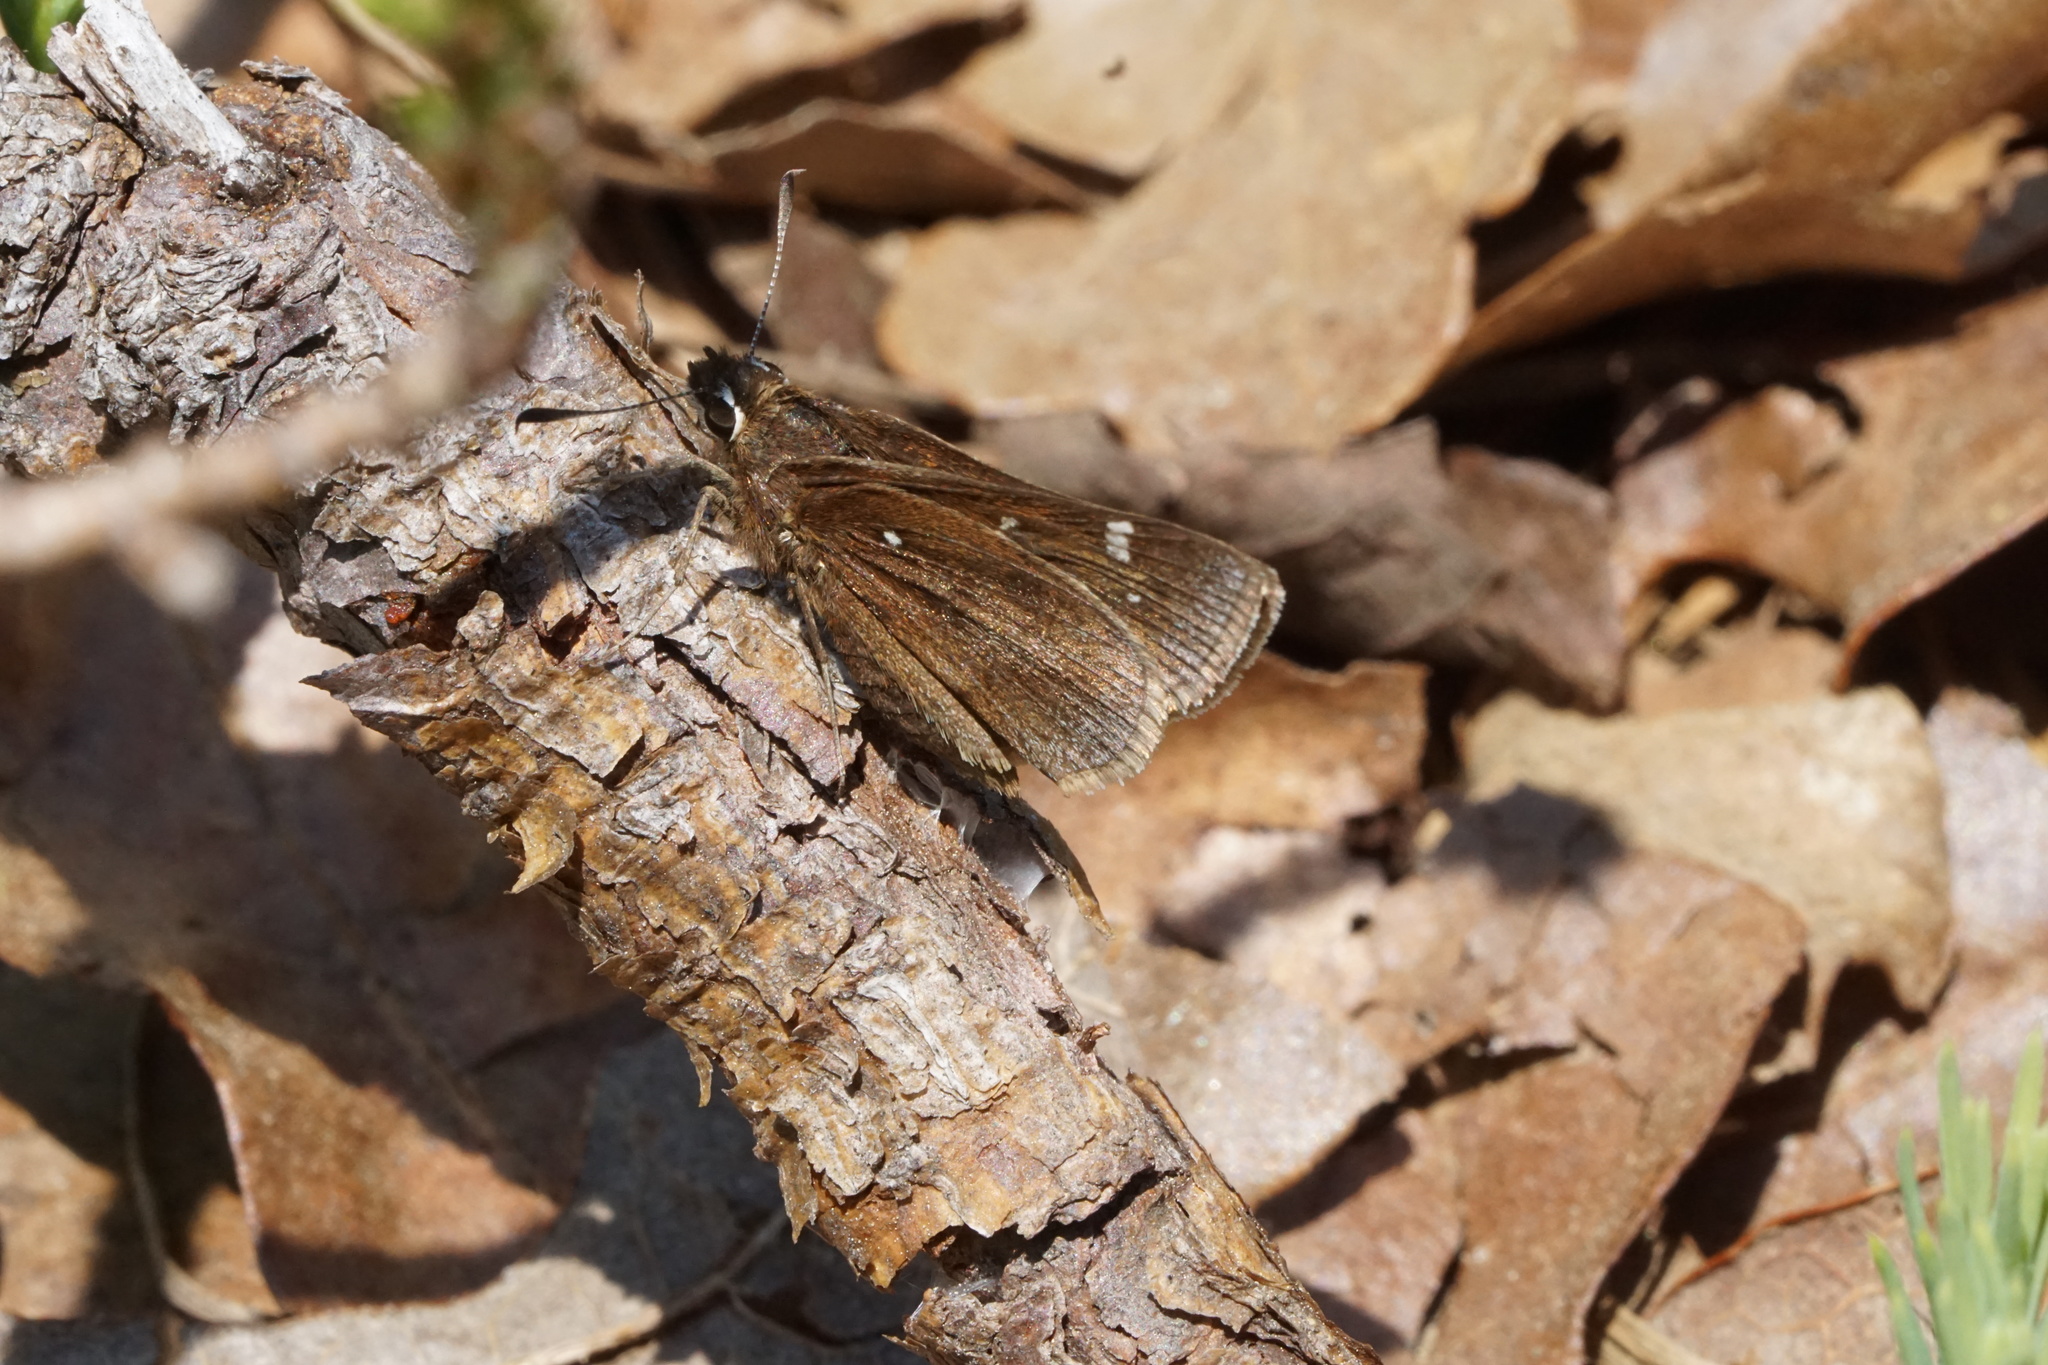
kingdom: Animalia
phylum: Arthropoda
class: Insecta
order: Lepidoptera
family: Hesperiidae
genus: Atrytonopsis
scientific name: Atrytonopsis hianna
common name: Dusted skipper
